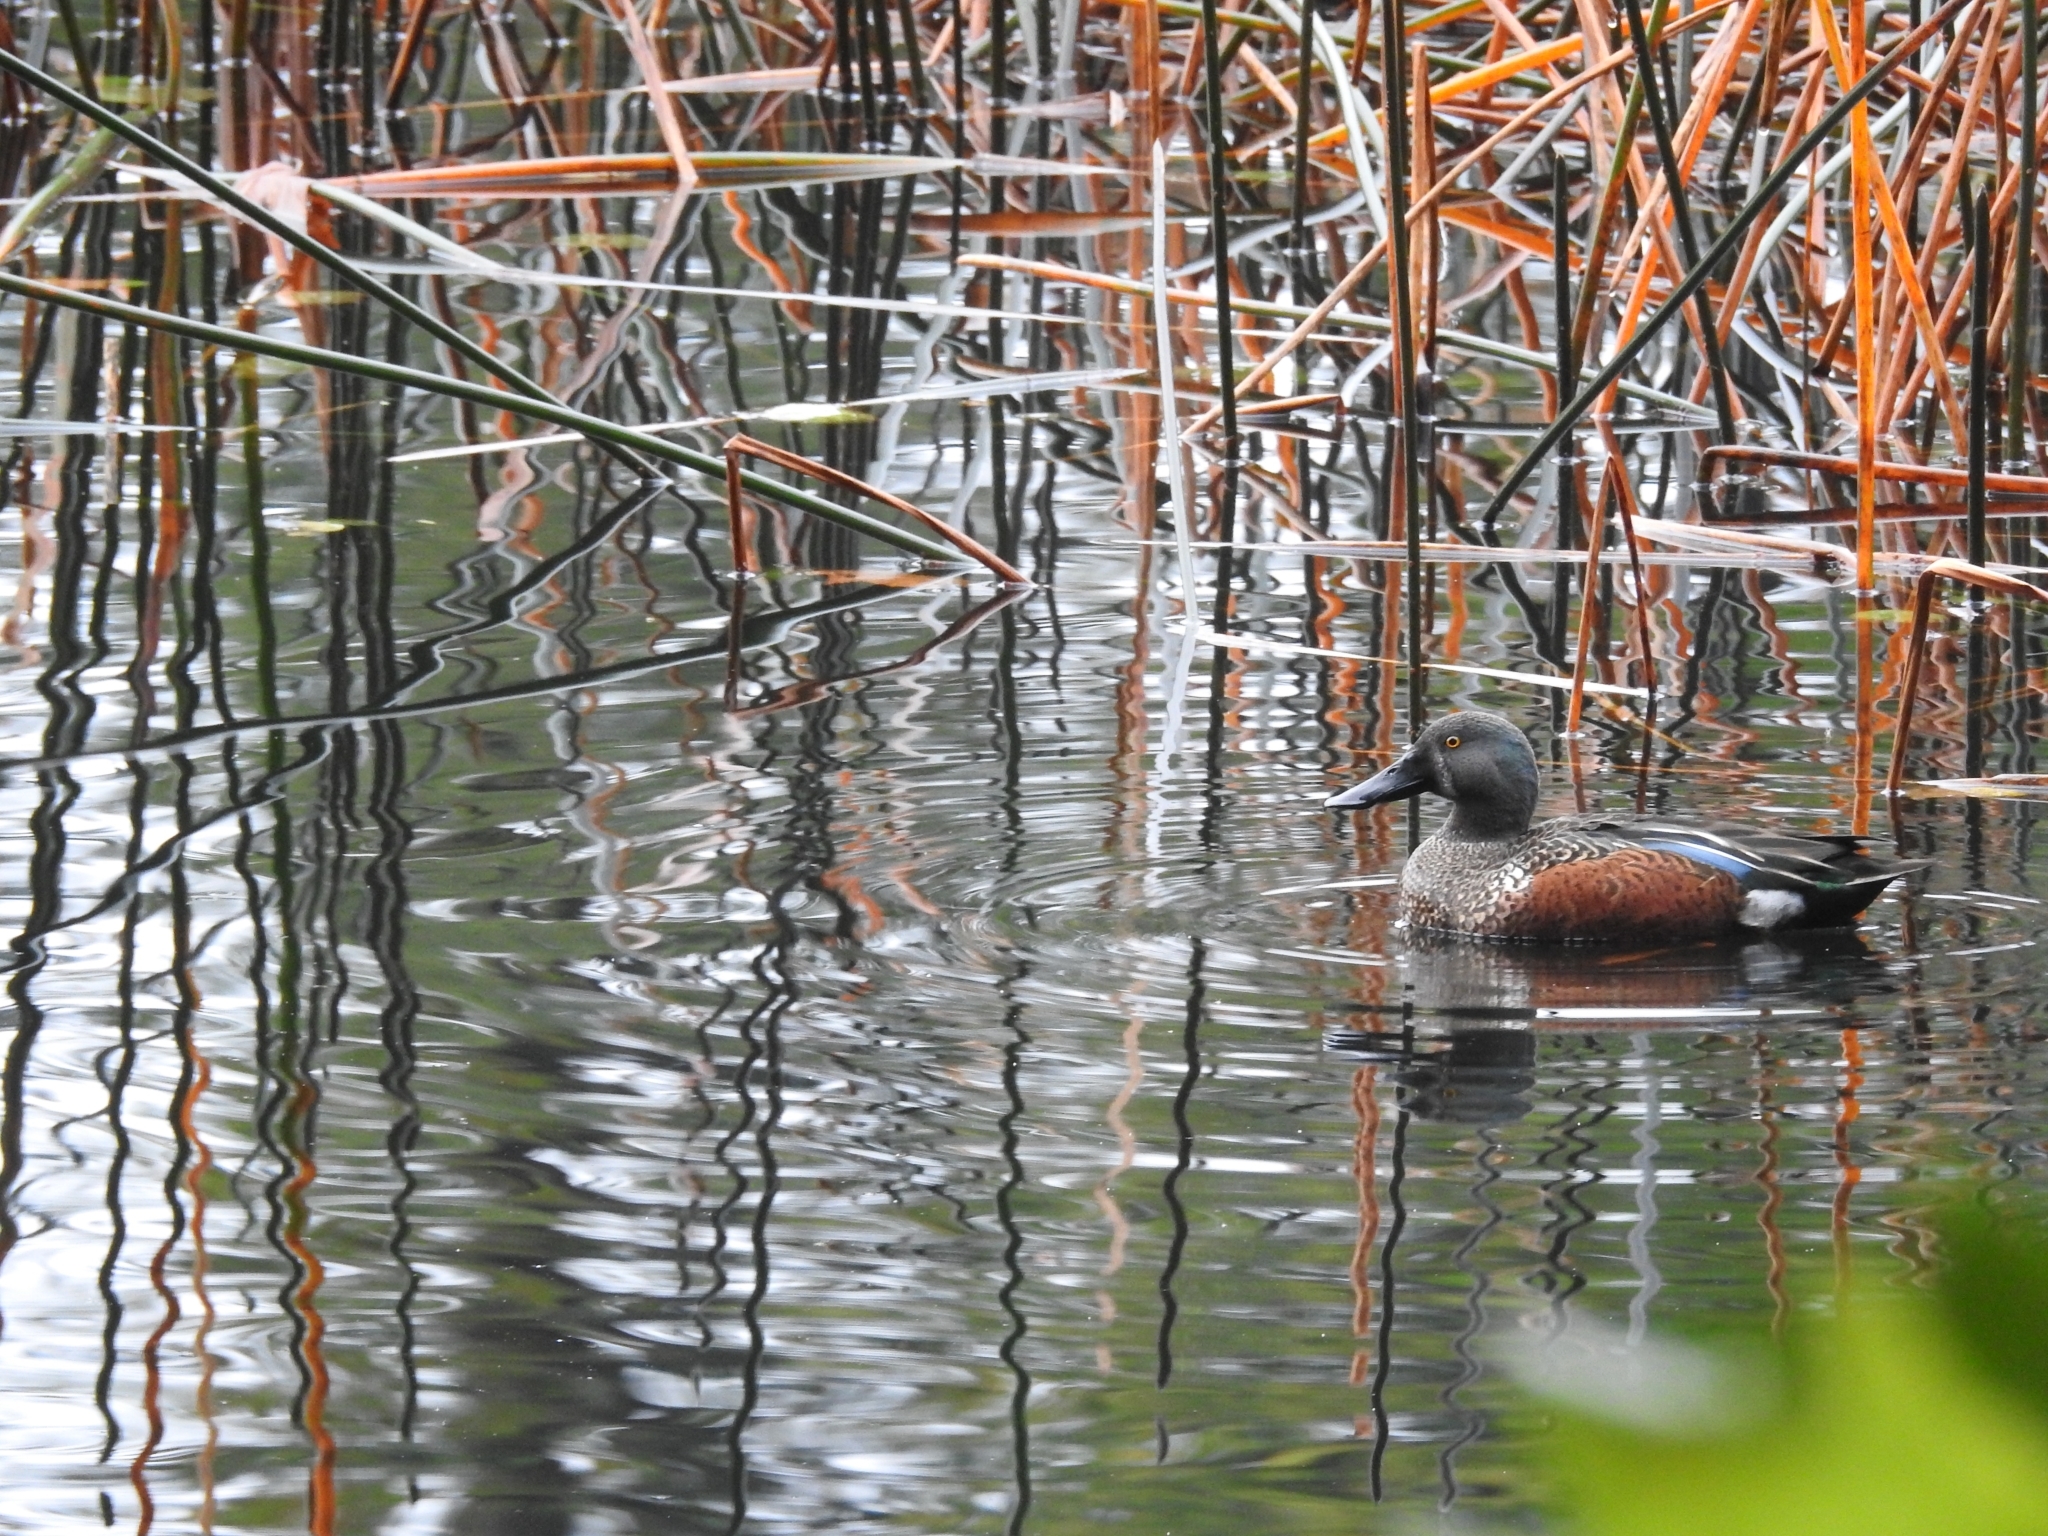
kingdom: Animalia
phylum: Chordata
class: Aves
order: Anseriformes
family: Anatidae
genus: Spatula
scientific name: Spatula rhynchotis
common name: Australian shoveler
